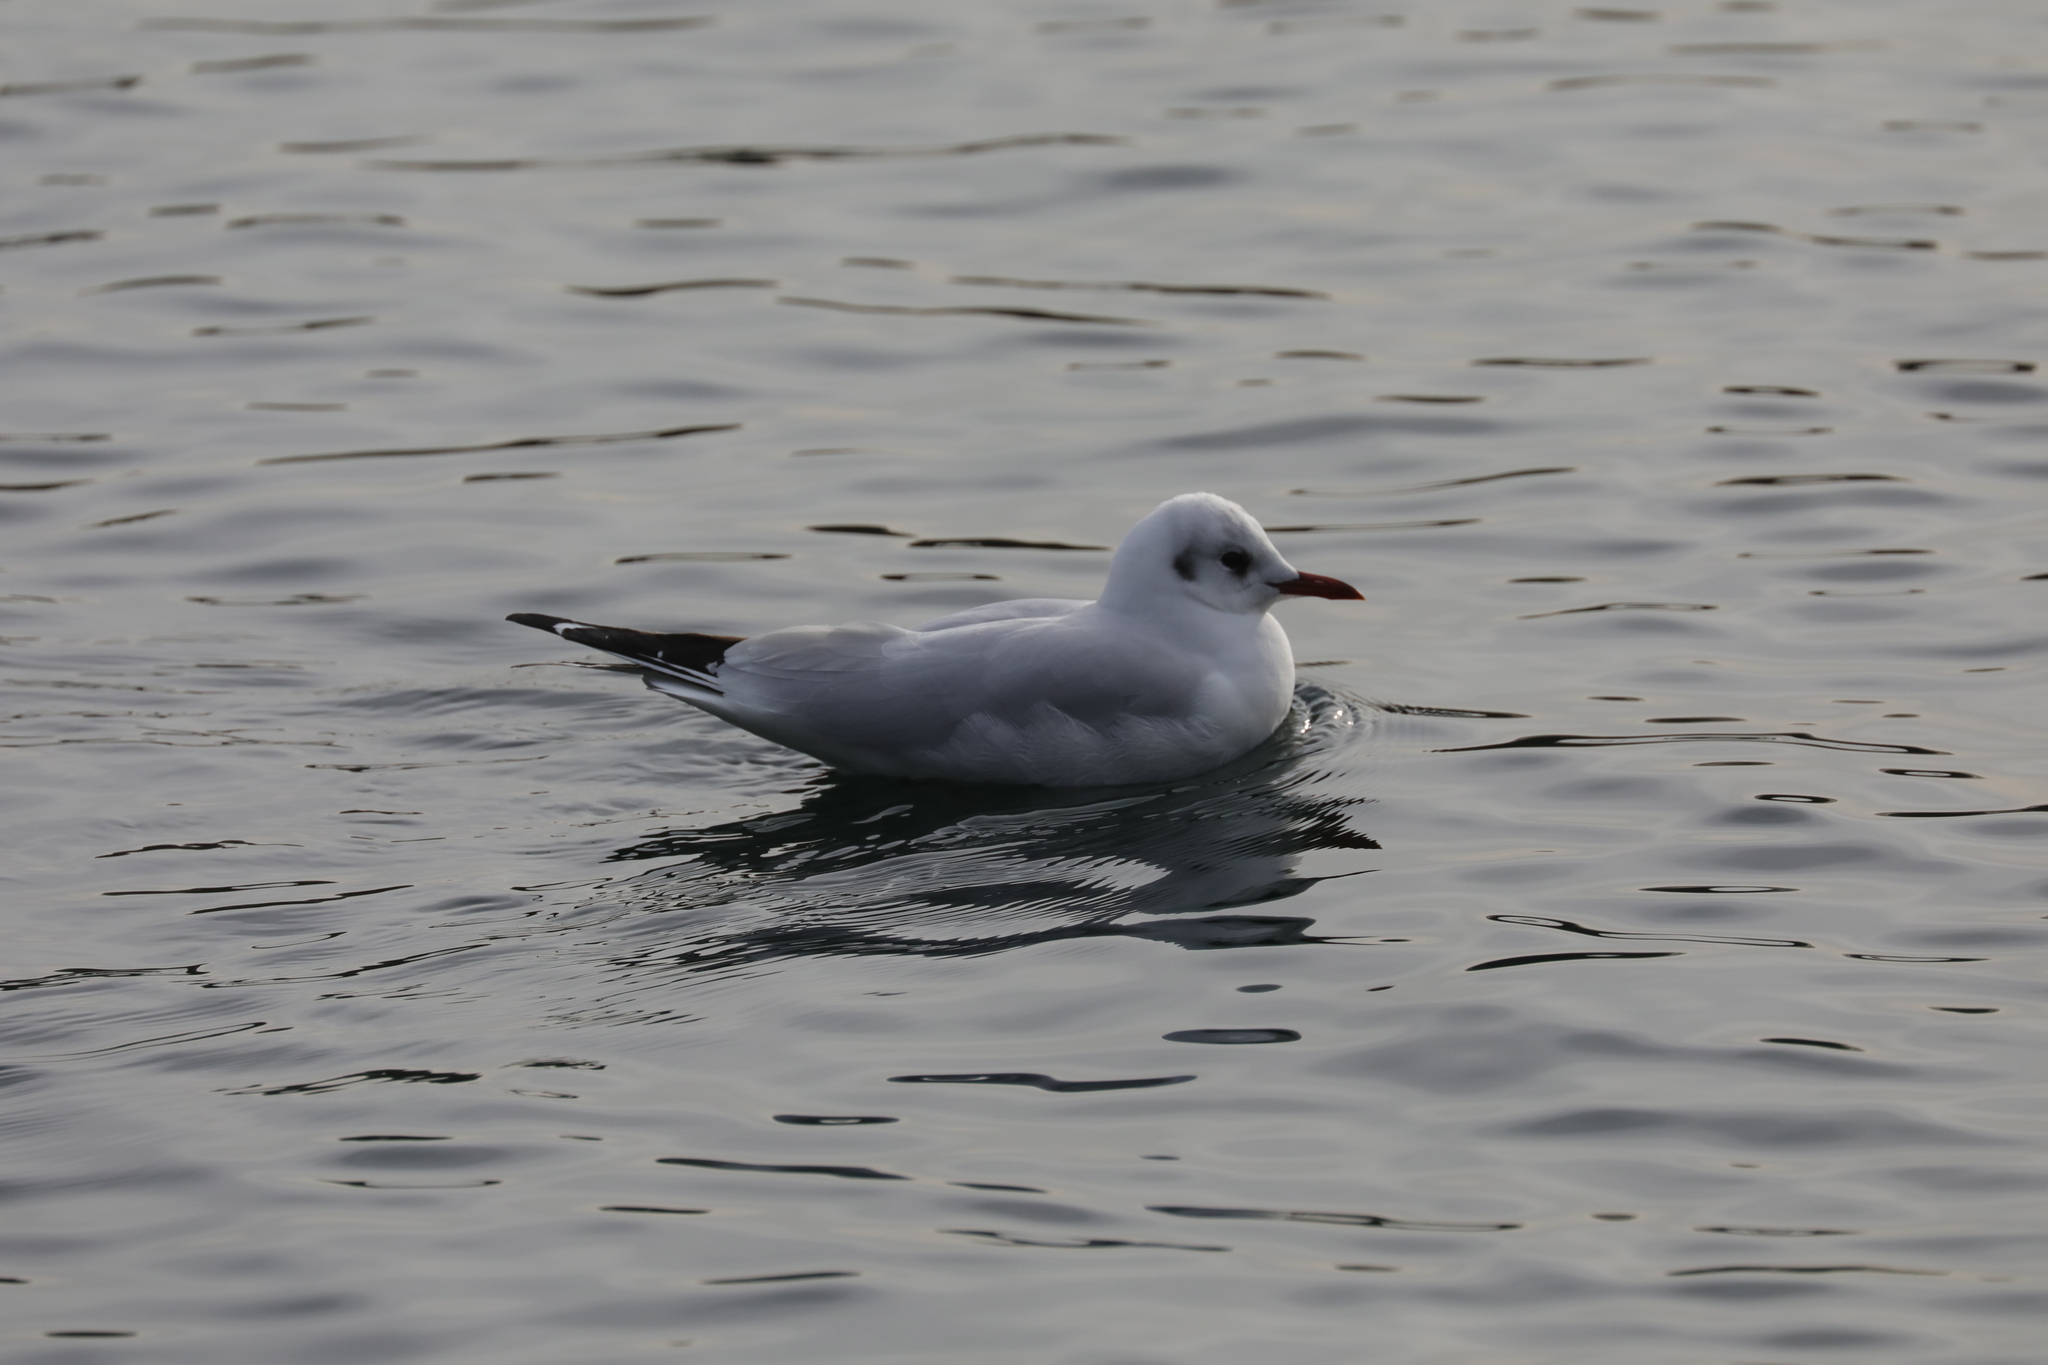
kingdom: Animalia
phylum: Chordata
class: Aves
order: Charadriiformes
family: Laridae
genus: Chroicocephalus
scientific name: Chroicocephalus ridibundus
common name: Black-headed gull
